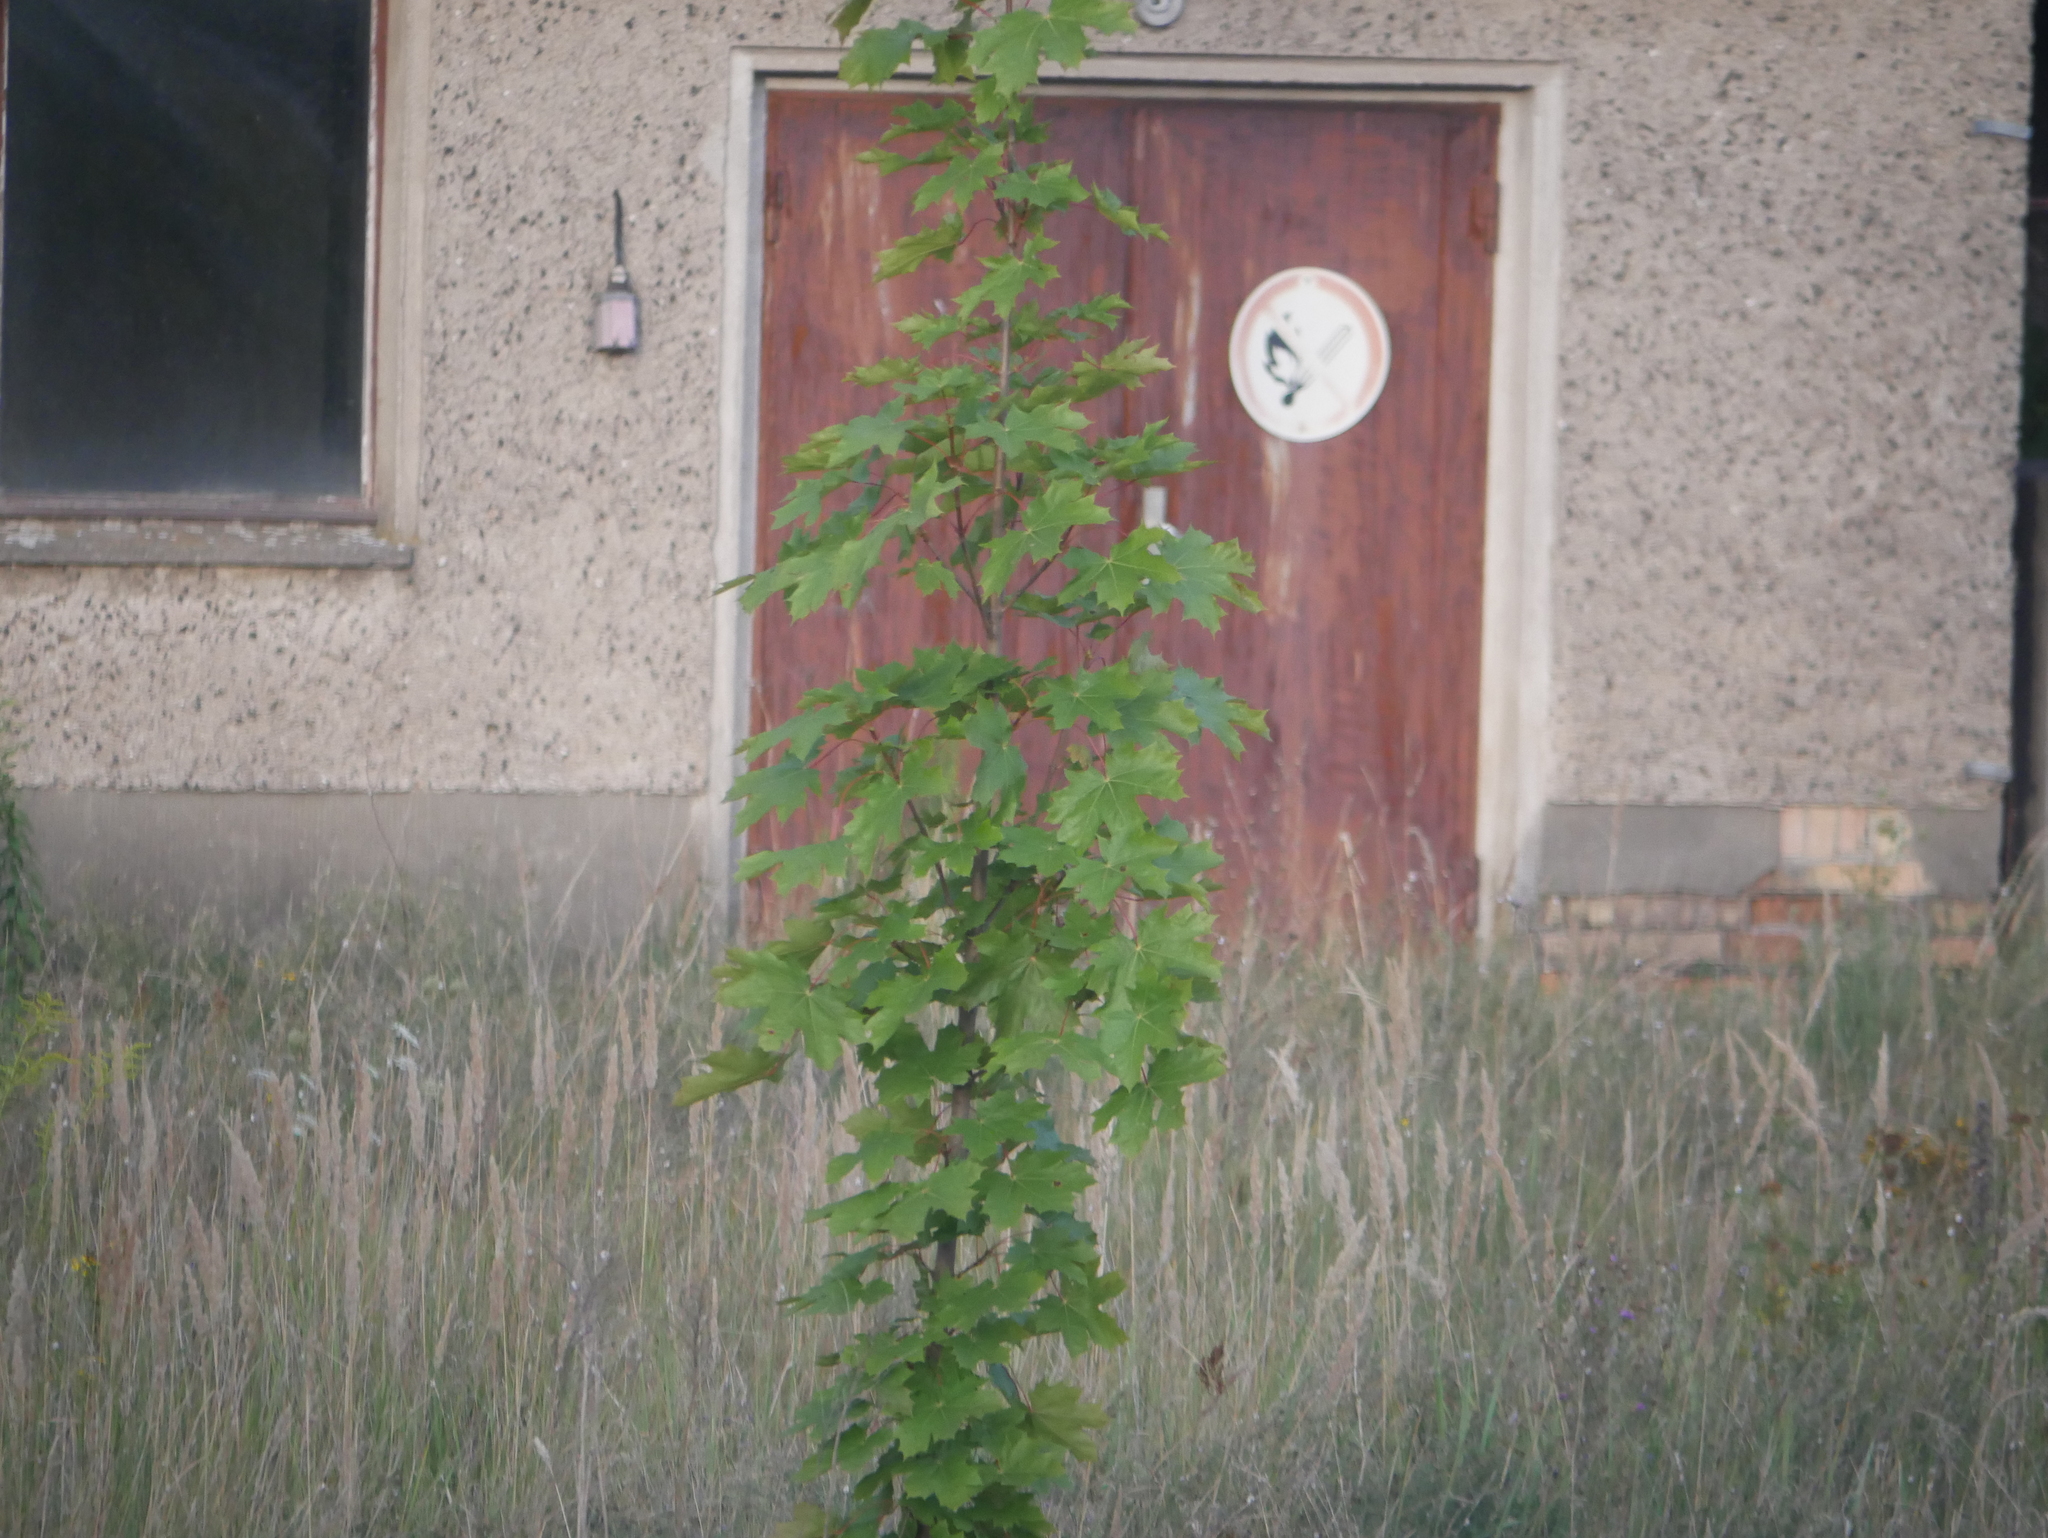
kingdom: Plantae
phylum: Tracheophyta
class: Magnoliopsida
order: Sapindales
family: Sapindaceae
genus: Acer
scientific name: Acer platanoides
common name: Norway maple
